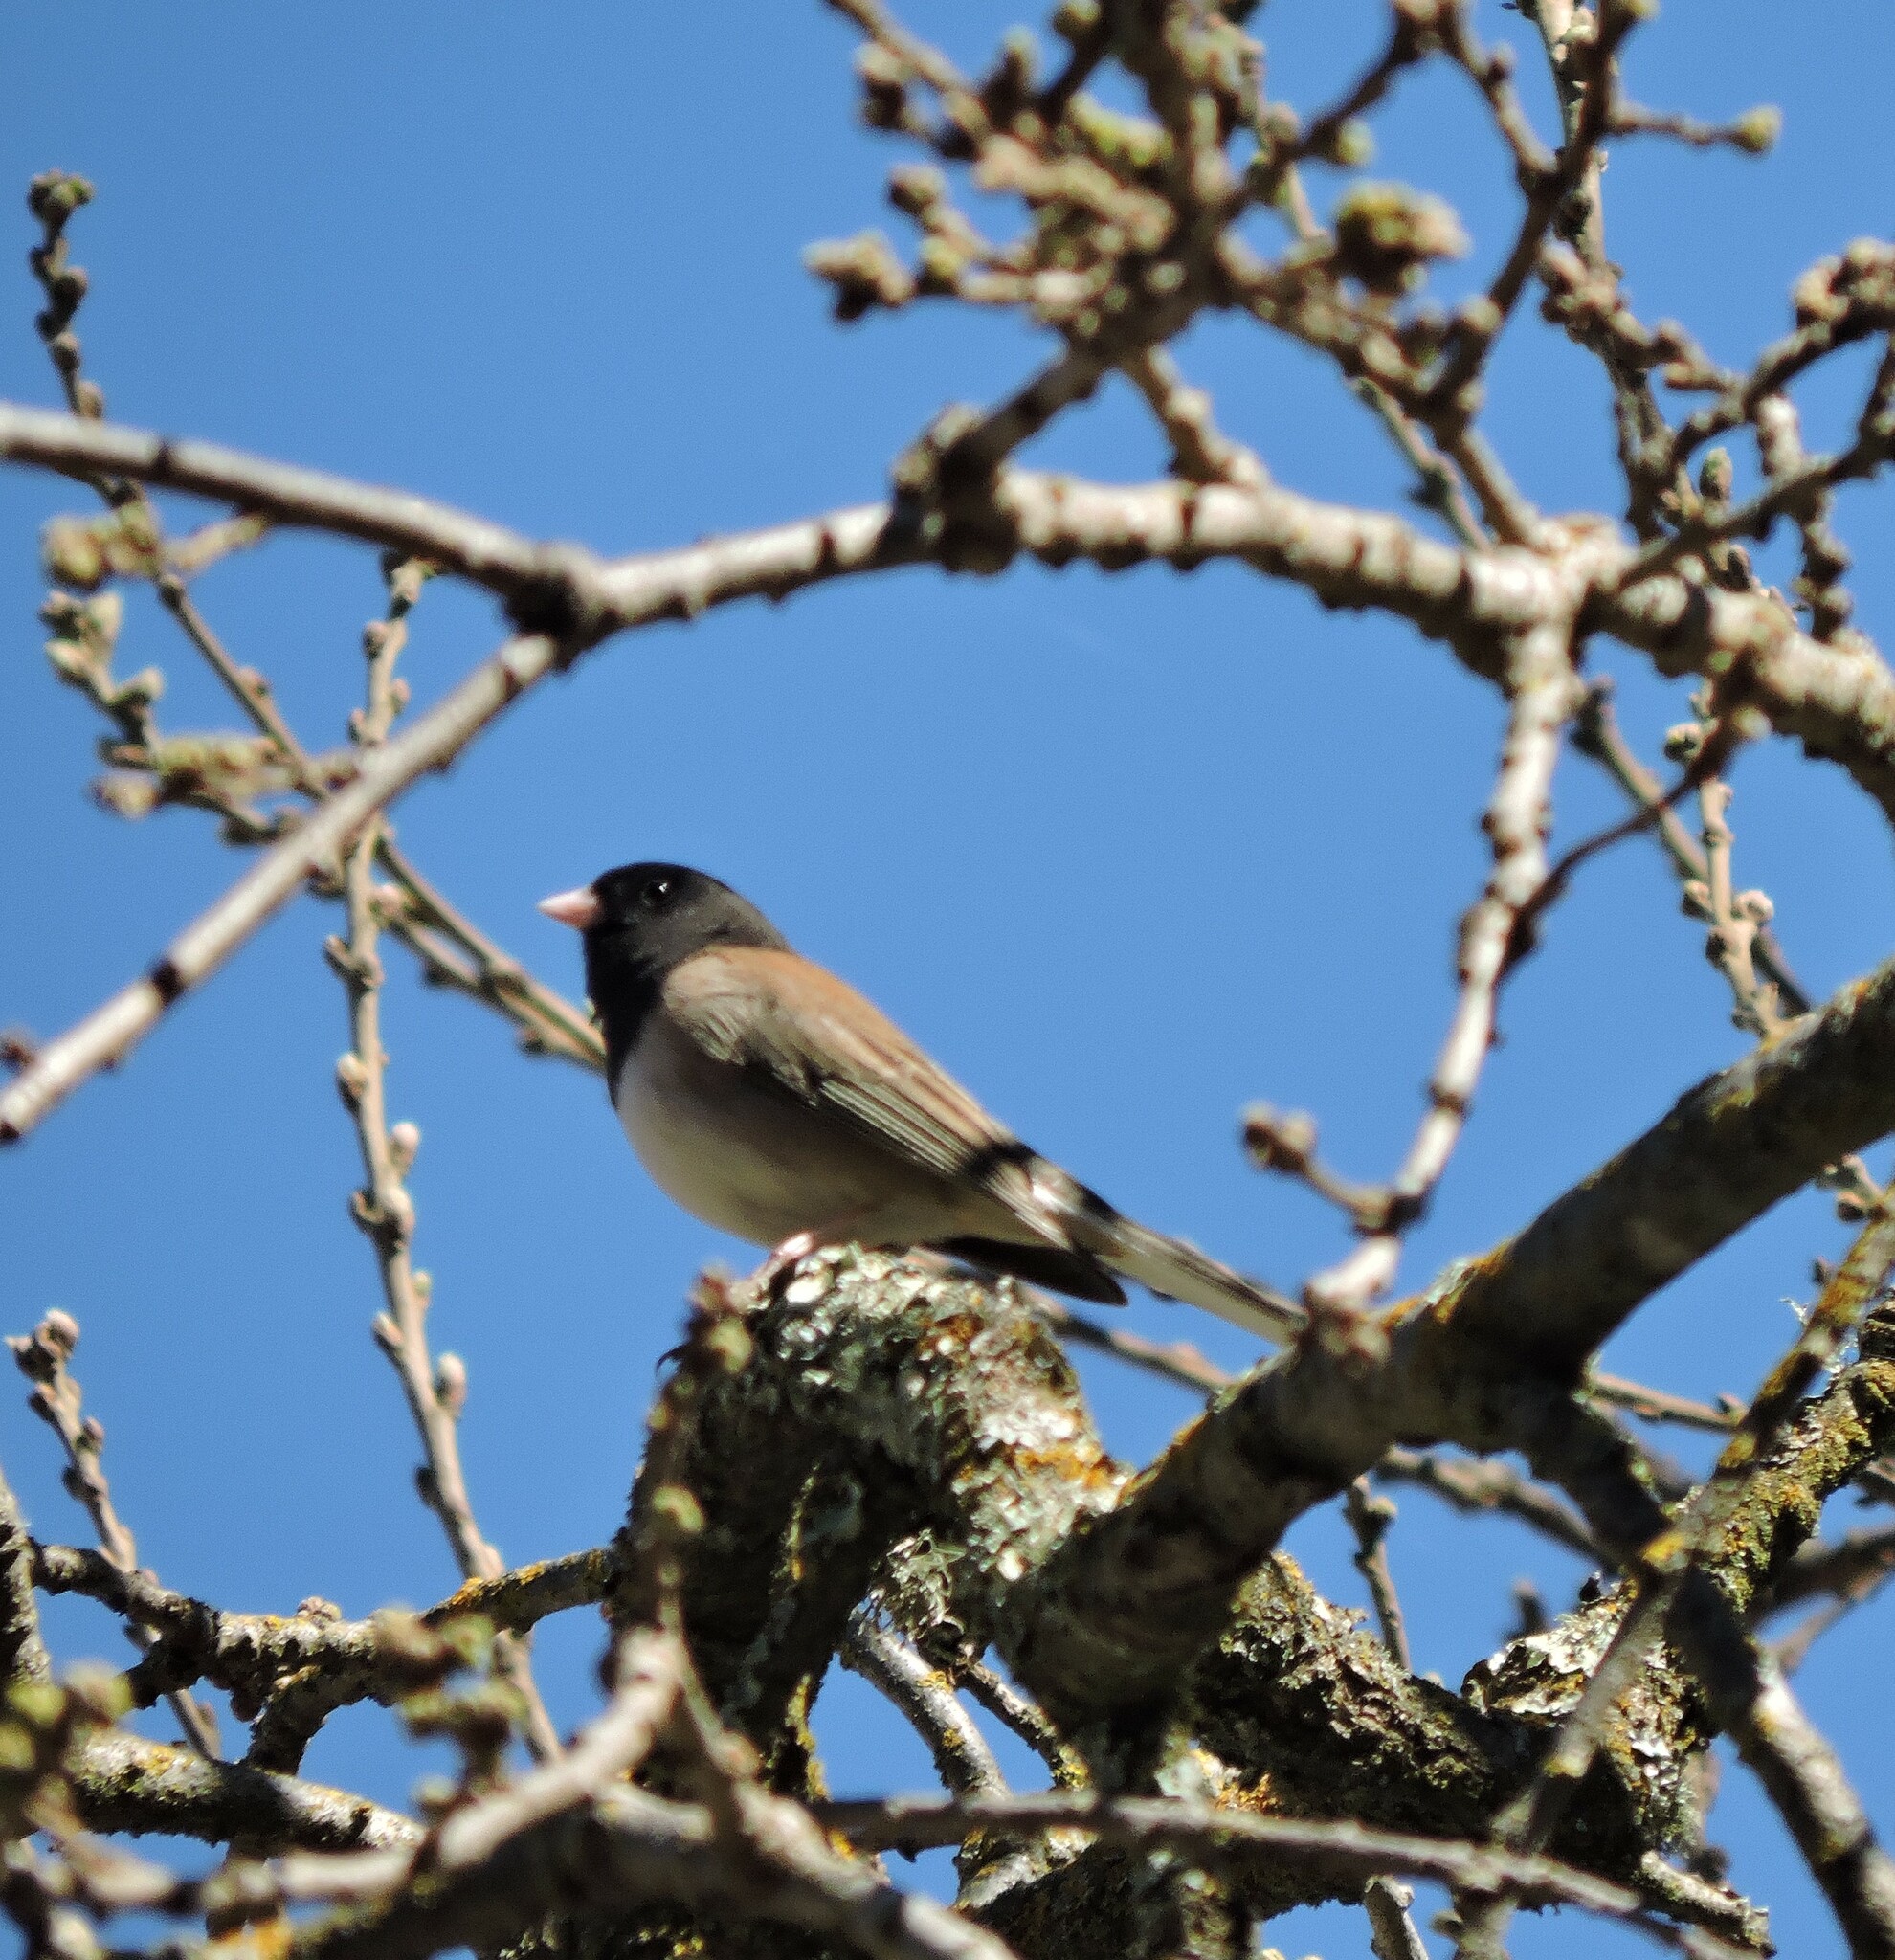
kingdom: Animalia
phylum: Chordata
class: Aves
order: Passeriformes
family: Passerellidae
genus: Junco
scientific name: Junco hyemalis
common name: Dark-eyed junco
